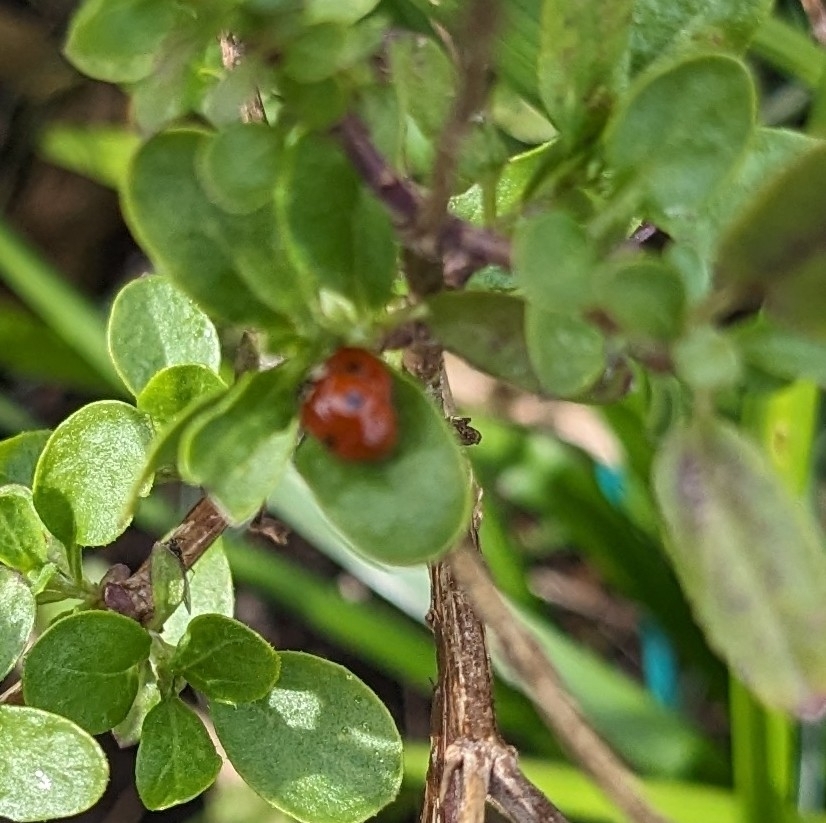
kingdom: Animalia
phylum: Arthropoda
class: Insecta
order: Coleoptera
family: Coccinellidae
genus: Adalia
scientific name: Adalia bipunctata
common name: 2-spot ladybird
